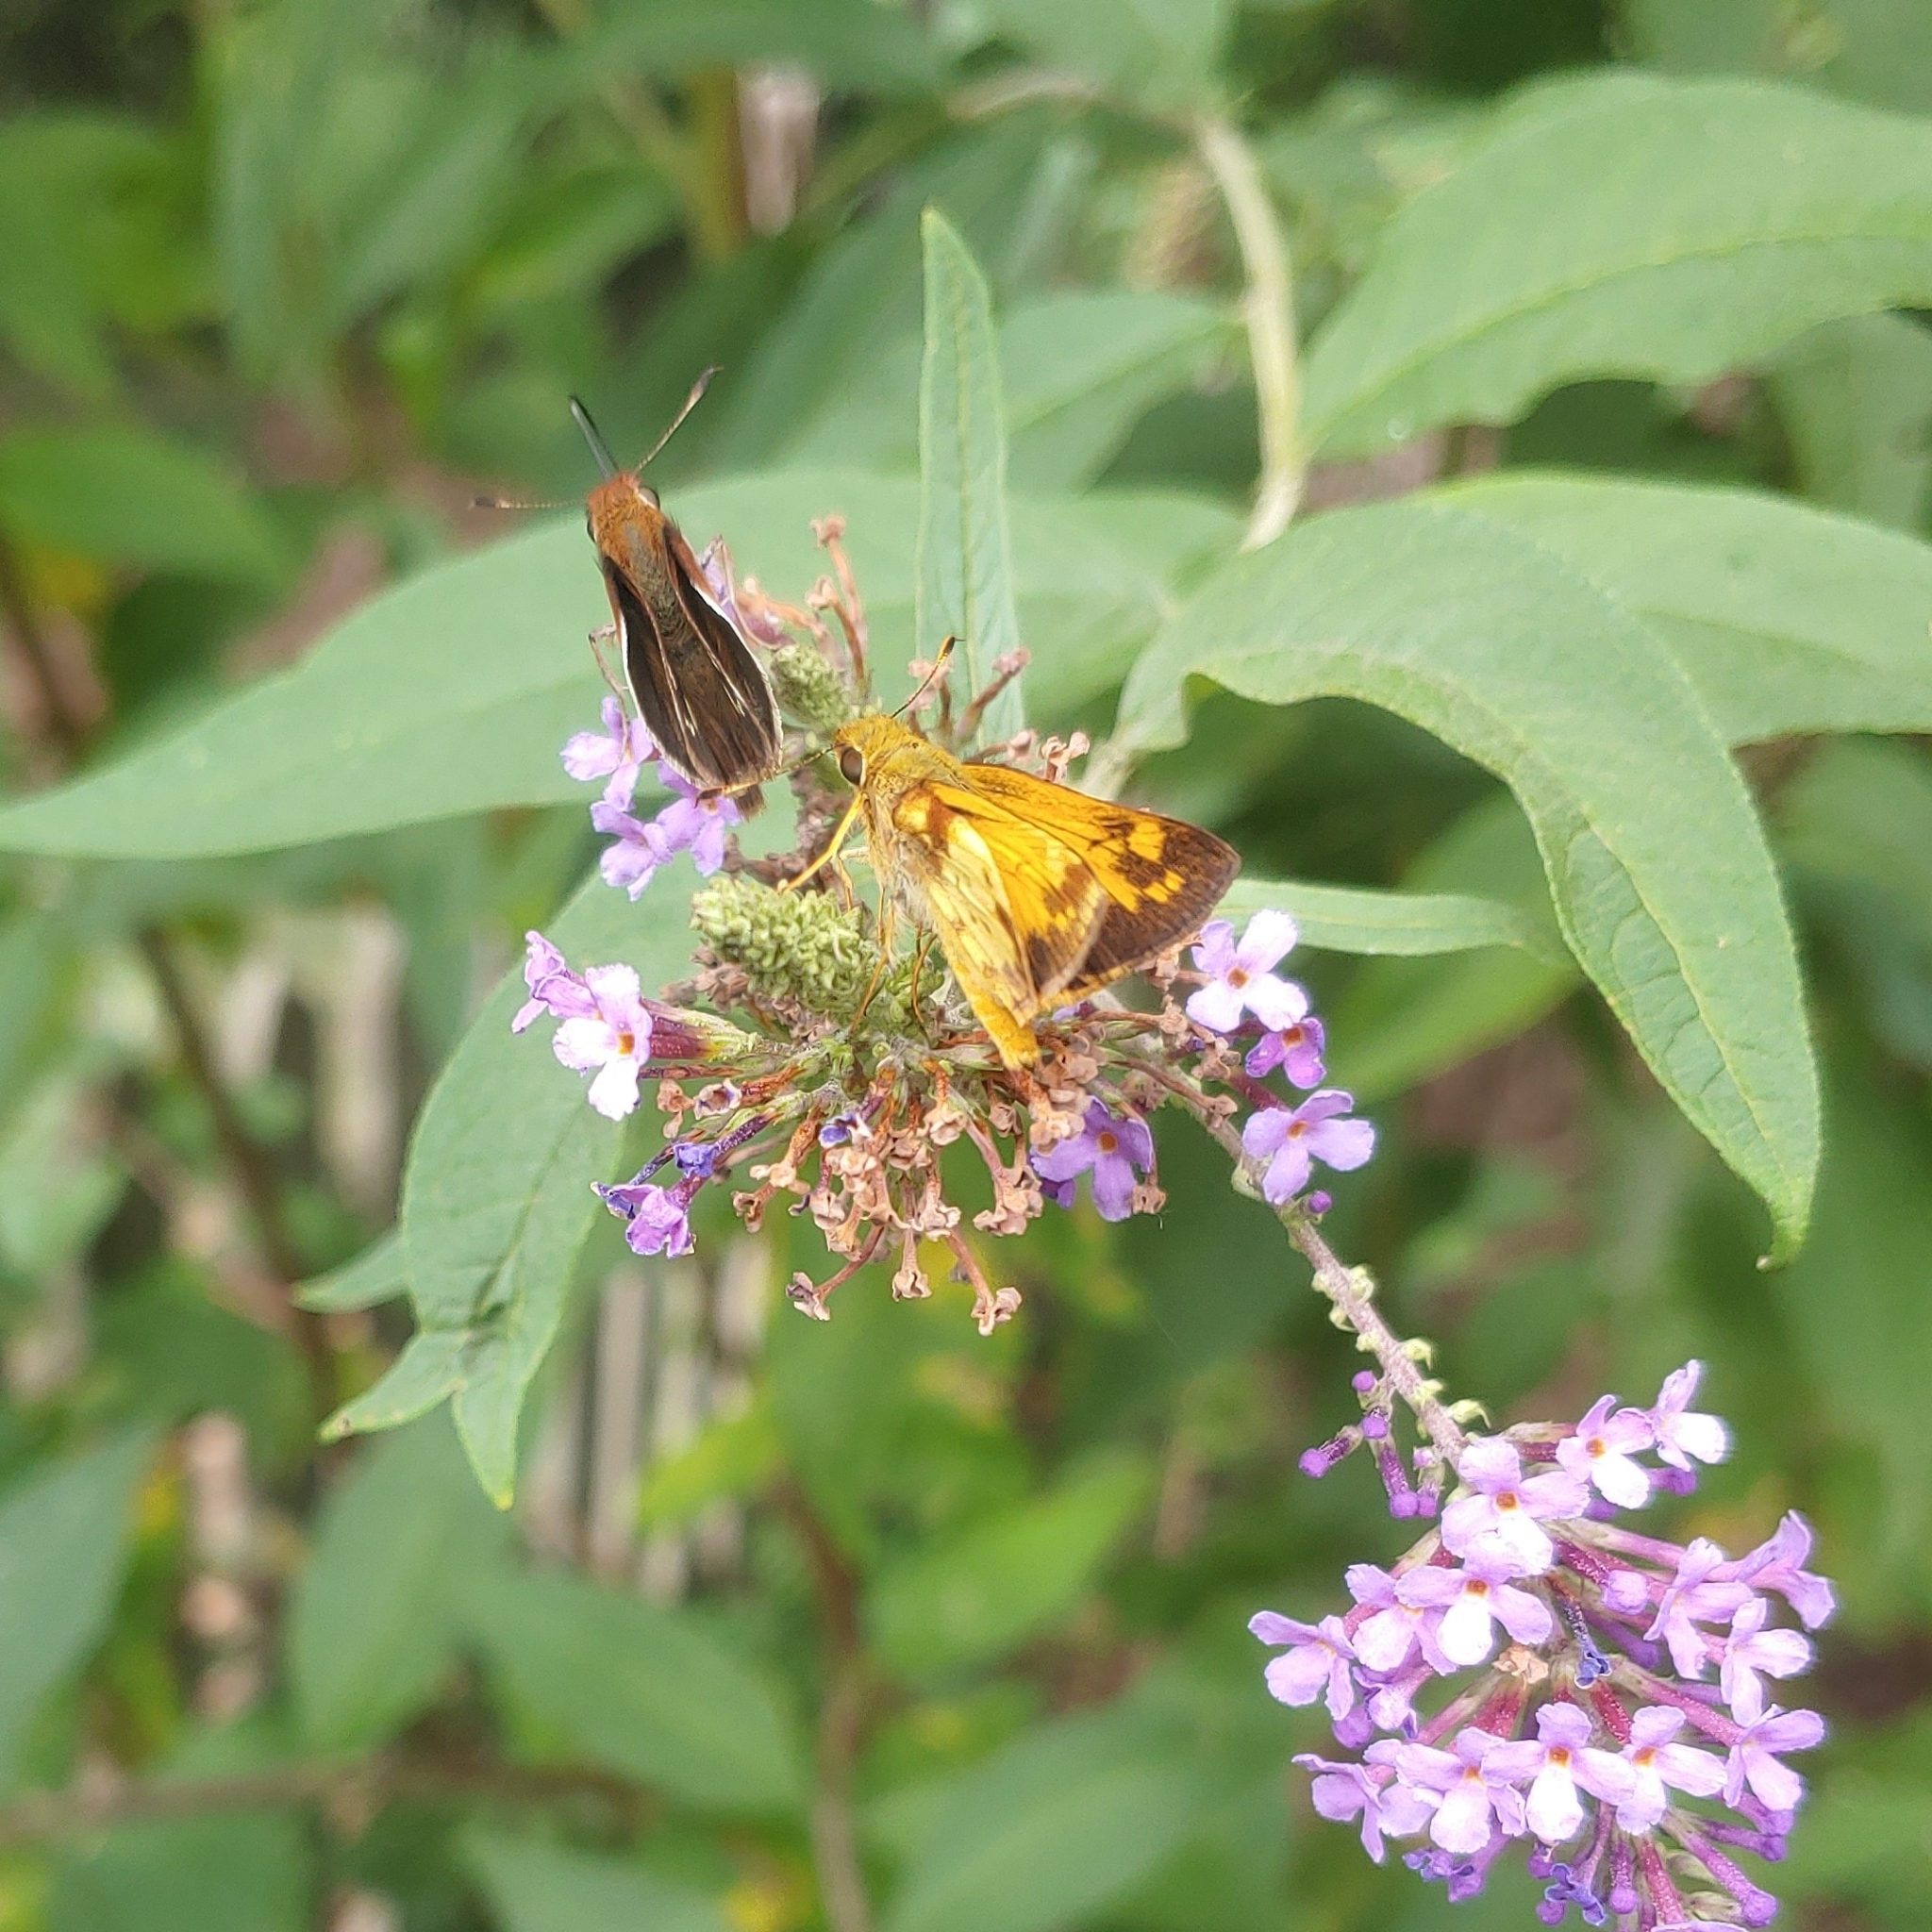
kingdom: Animalia
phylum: Arthropoda
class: Insecta
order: Lepidoptera
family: Hesperiidae
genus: Lon
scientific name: Lon zabulon
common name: Zabulon skipper
